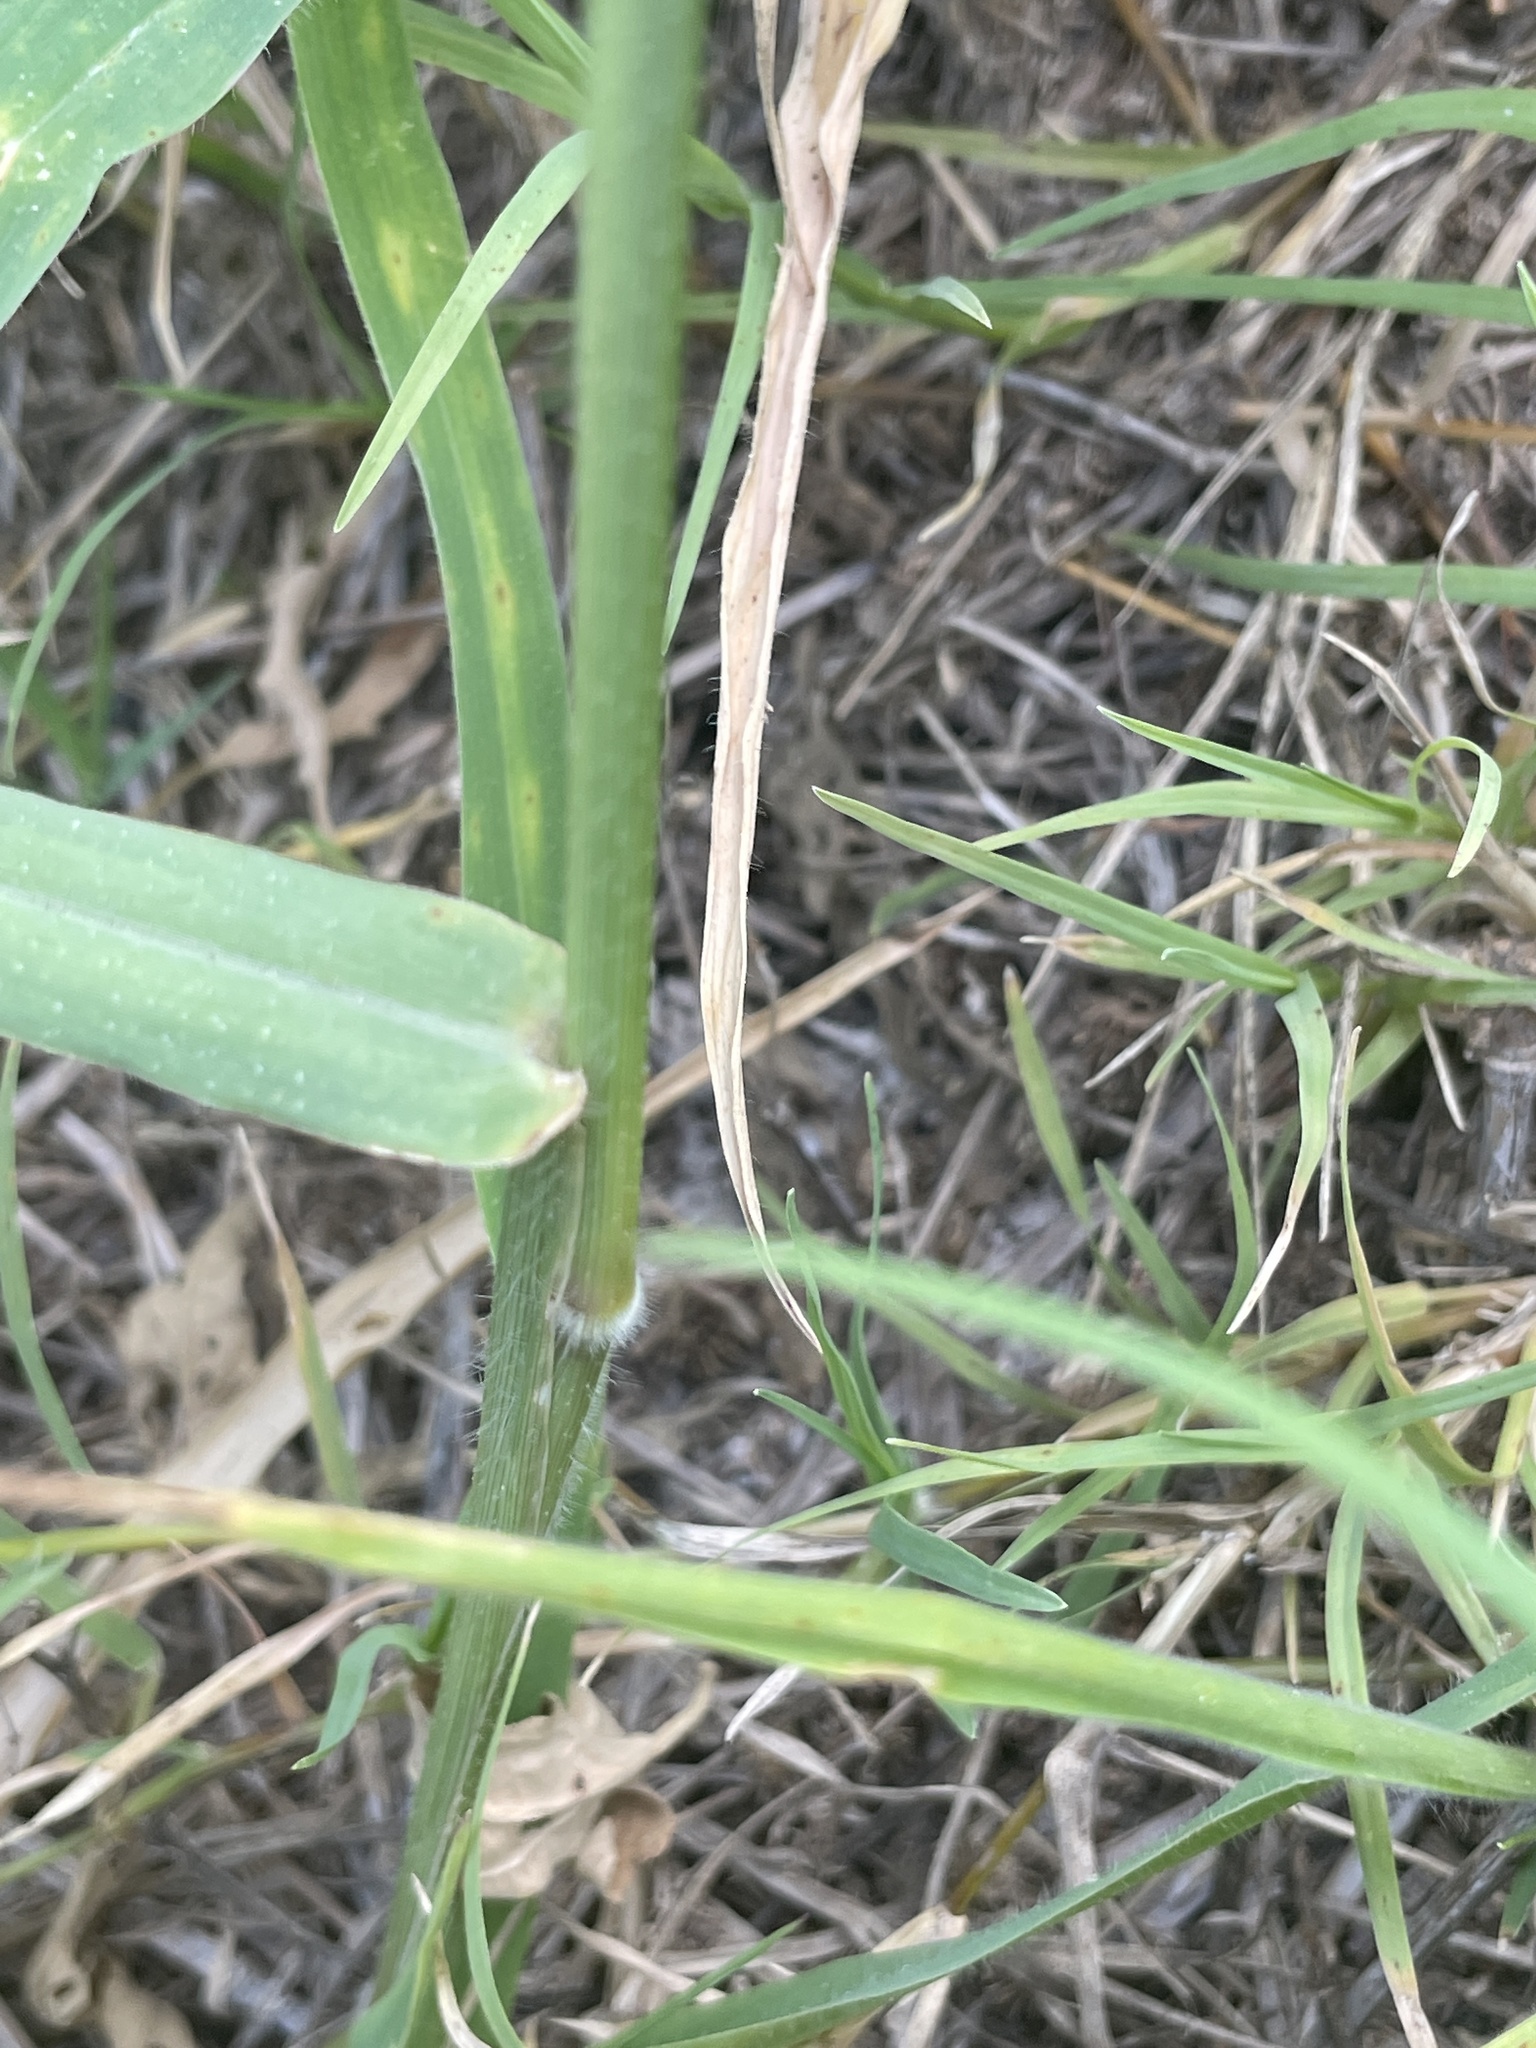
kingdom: Plantae
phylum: Tracheophyta
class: Liliopsida
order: Poales
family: Poaceae
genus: Urochloa
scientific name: Urochloa trichopus
